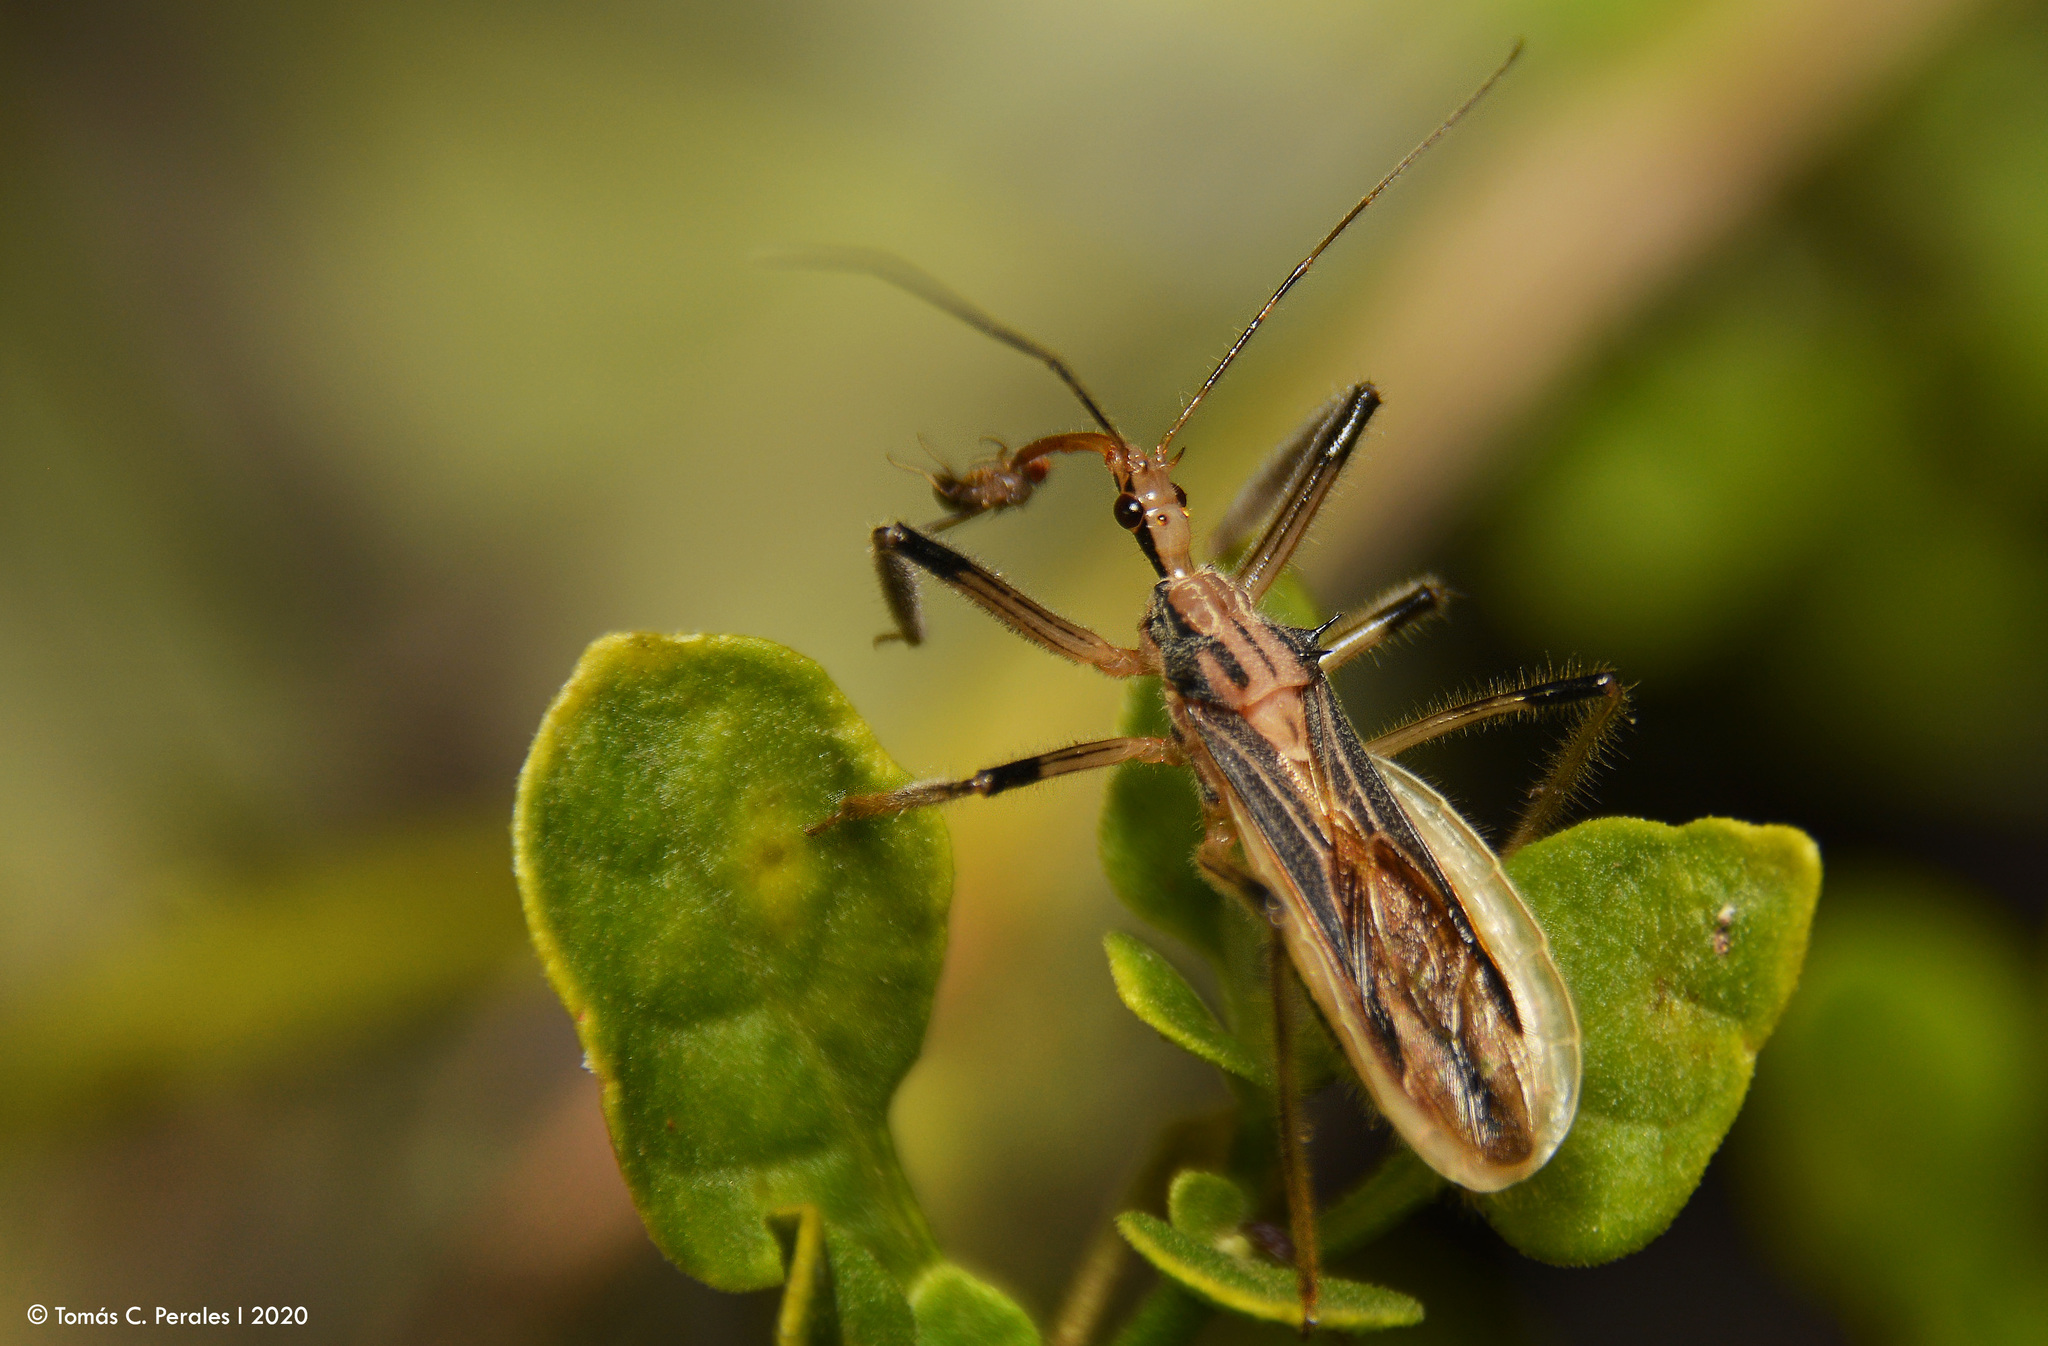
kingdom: Animalia
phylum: Arthropoda
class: Insecta
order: Hemiptera
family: Reduviidae
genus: Repipta
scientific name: Repipta argentinensis
